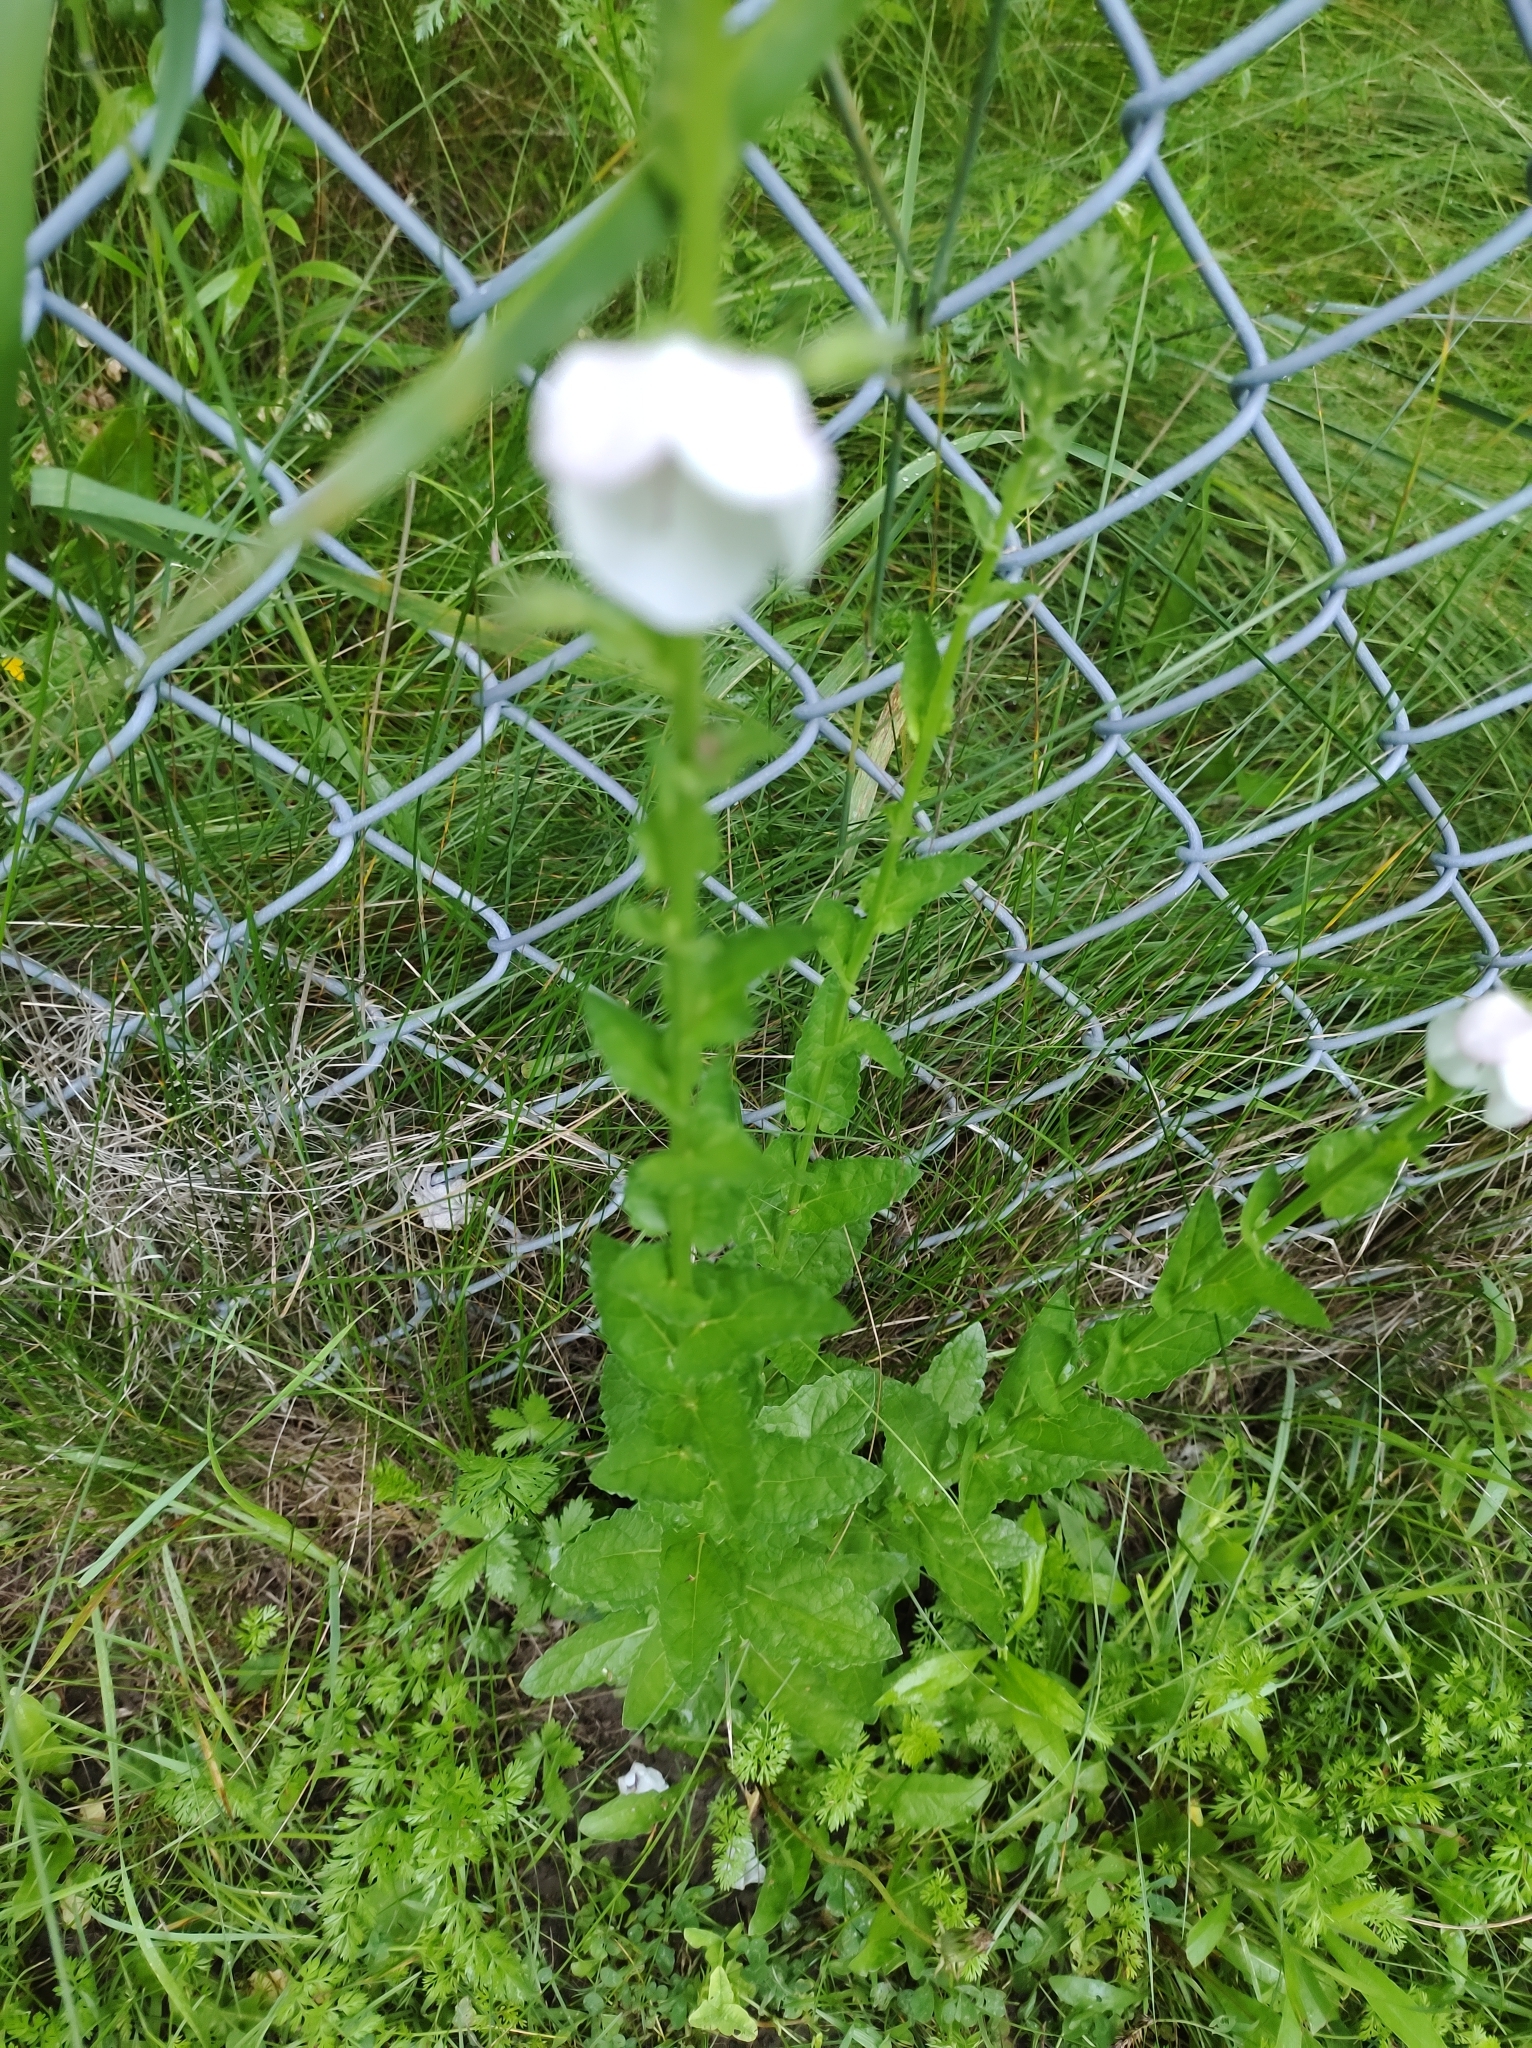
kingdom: Plantae
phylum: Tracheophyta
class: Magnoliopsida
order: Lamiales
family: Scrophulariaceae
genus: Verbascum
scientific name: Verbascum blattaria
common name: Moth mullein
